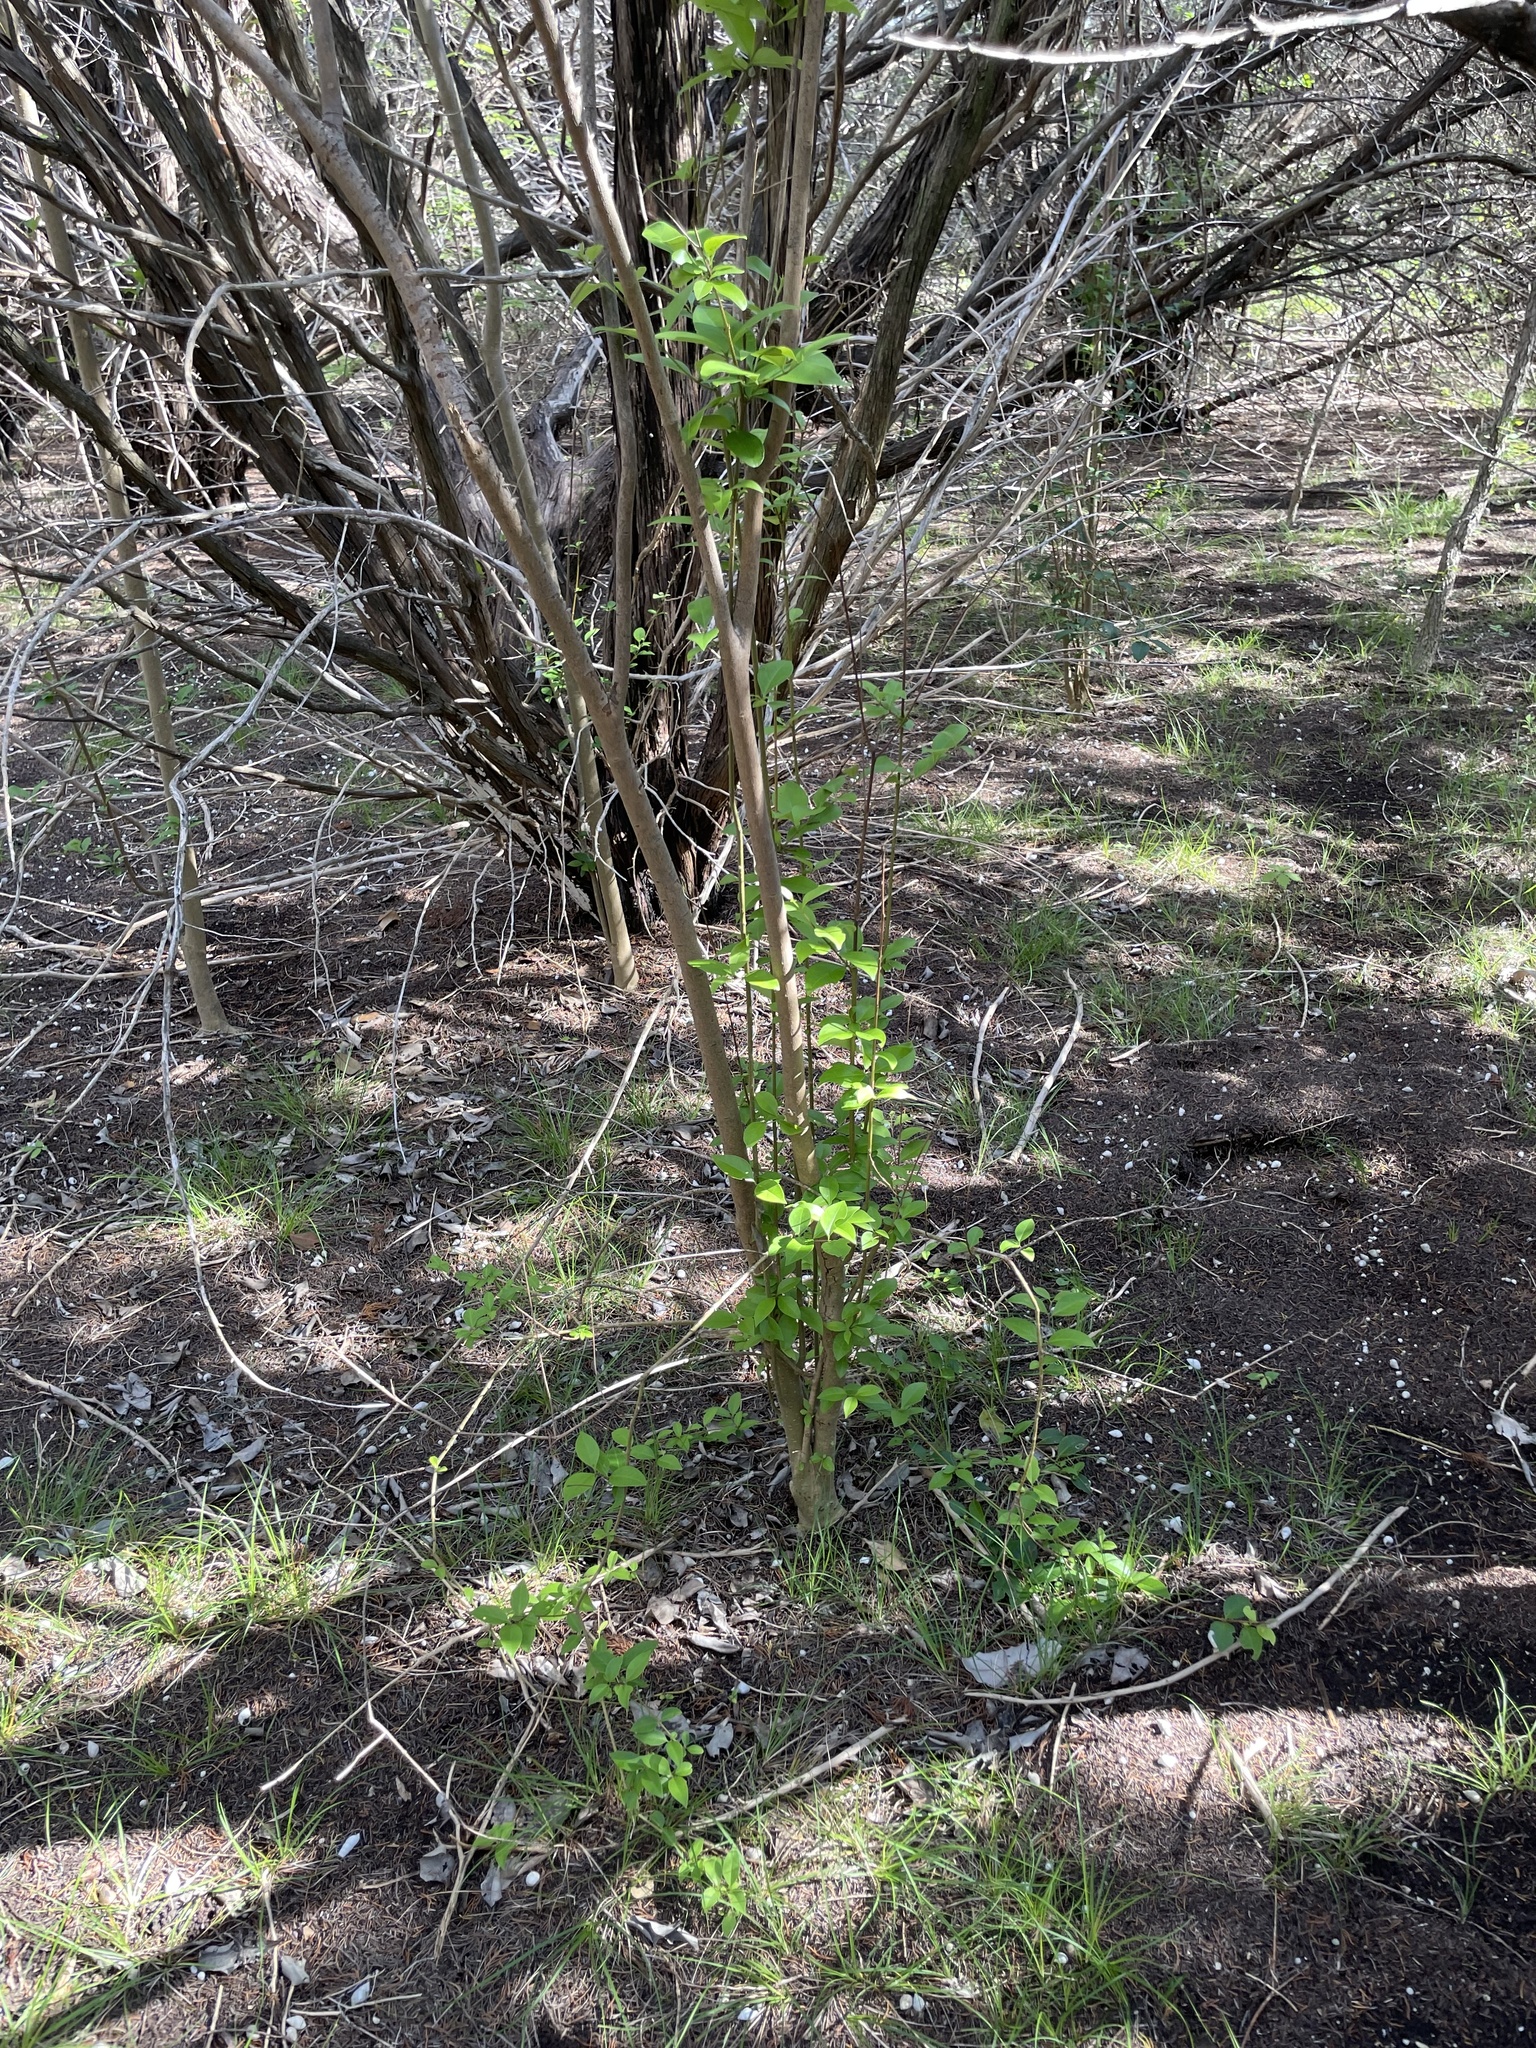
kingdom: Plantae
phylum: Tracheophyta
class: Magnoliopsida
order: Lamiales
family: Oleaceae
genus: Ligustrum
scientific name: Ligustrum lucidum
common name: Glossy privet
